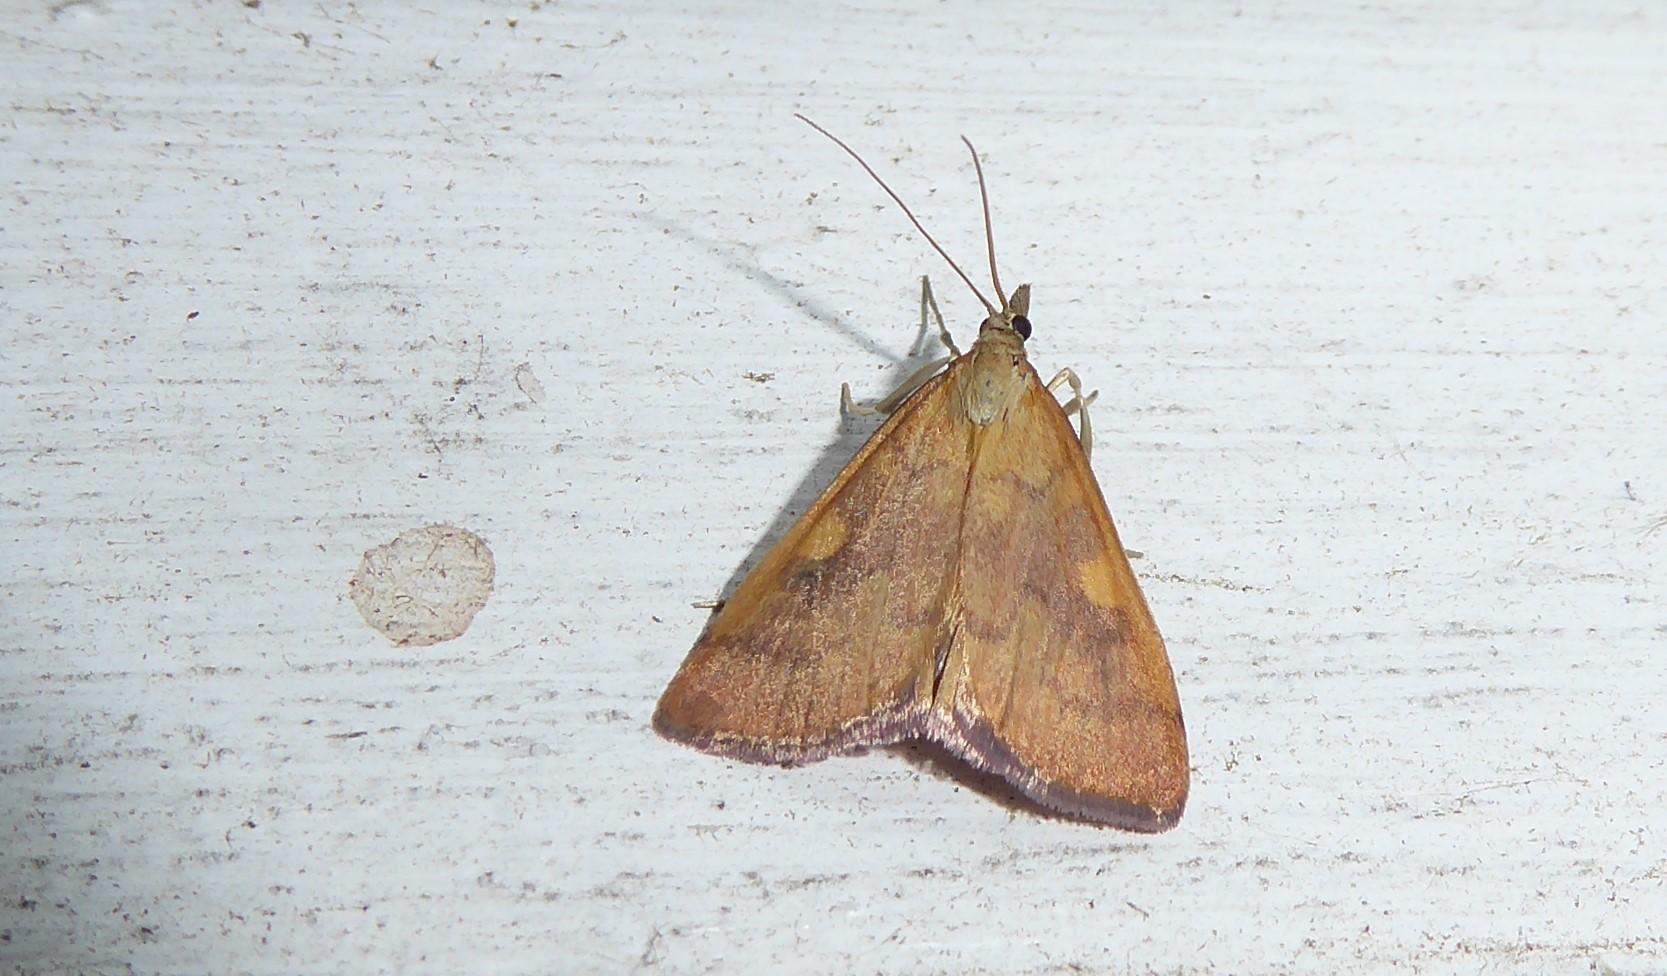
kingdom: Animalia
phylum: Arthropoda
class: Insecta
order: Lepidoptera
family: Crambidae
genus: Udea
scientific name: Udea Mnesictena flavidalis
